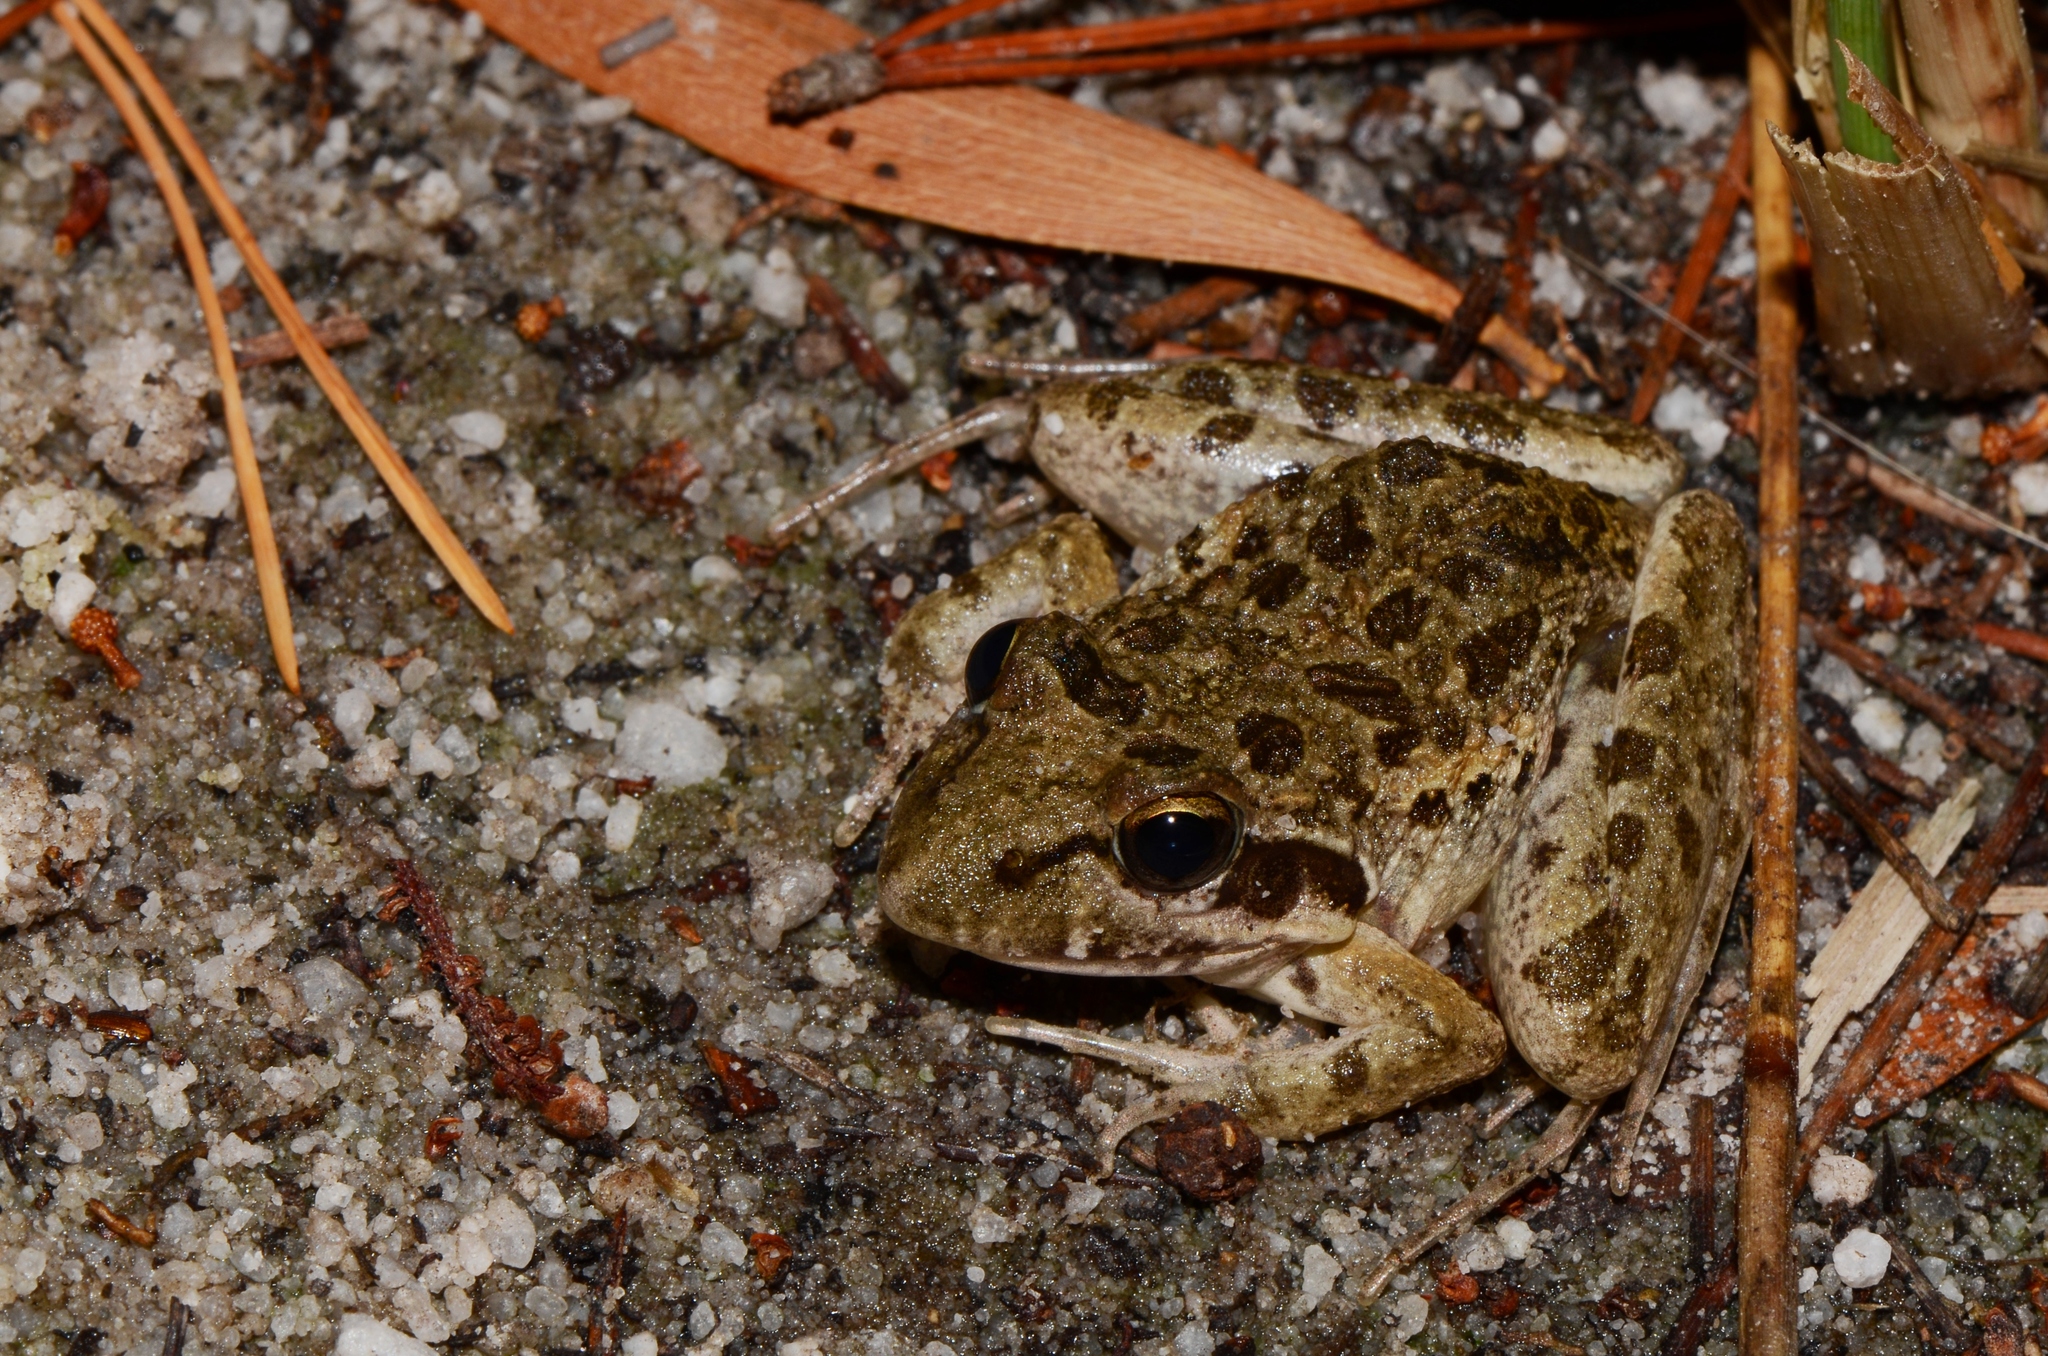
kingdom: Animalia
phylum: Chordata
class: Amphibia
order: Anura
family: Pyxicephalidae
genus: Strongylopus
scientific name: Strongylopus grayii
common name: Gray's stream frog
